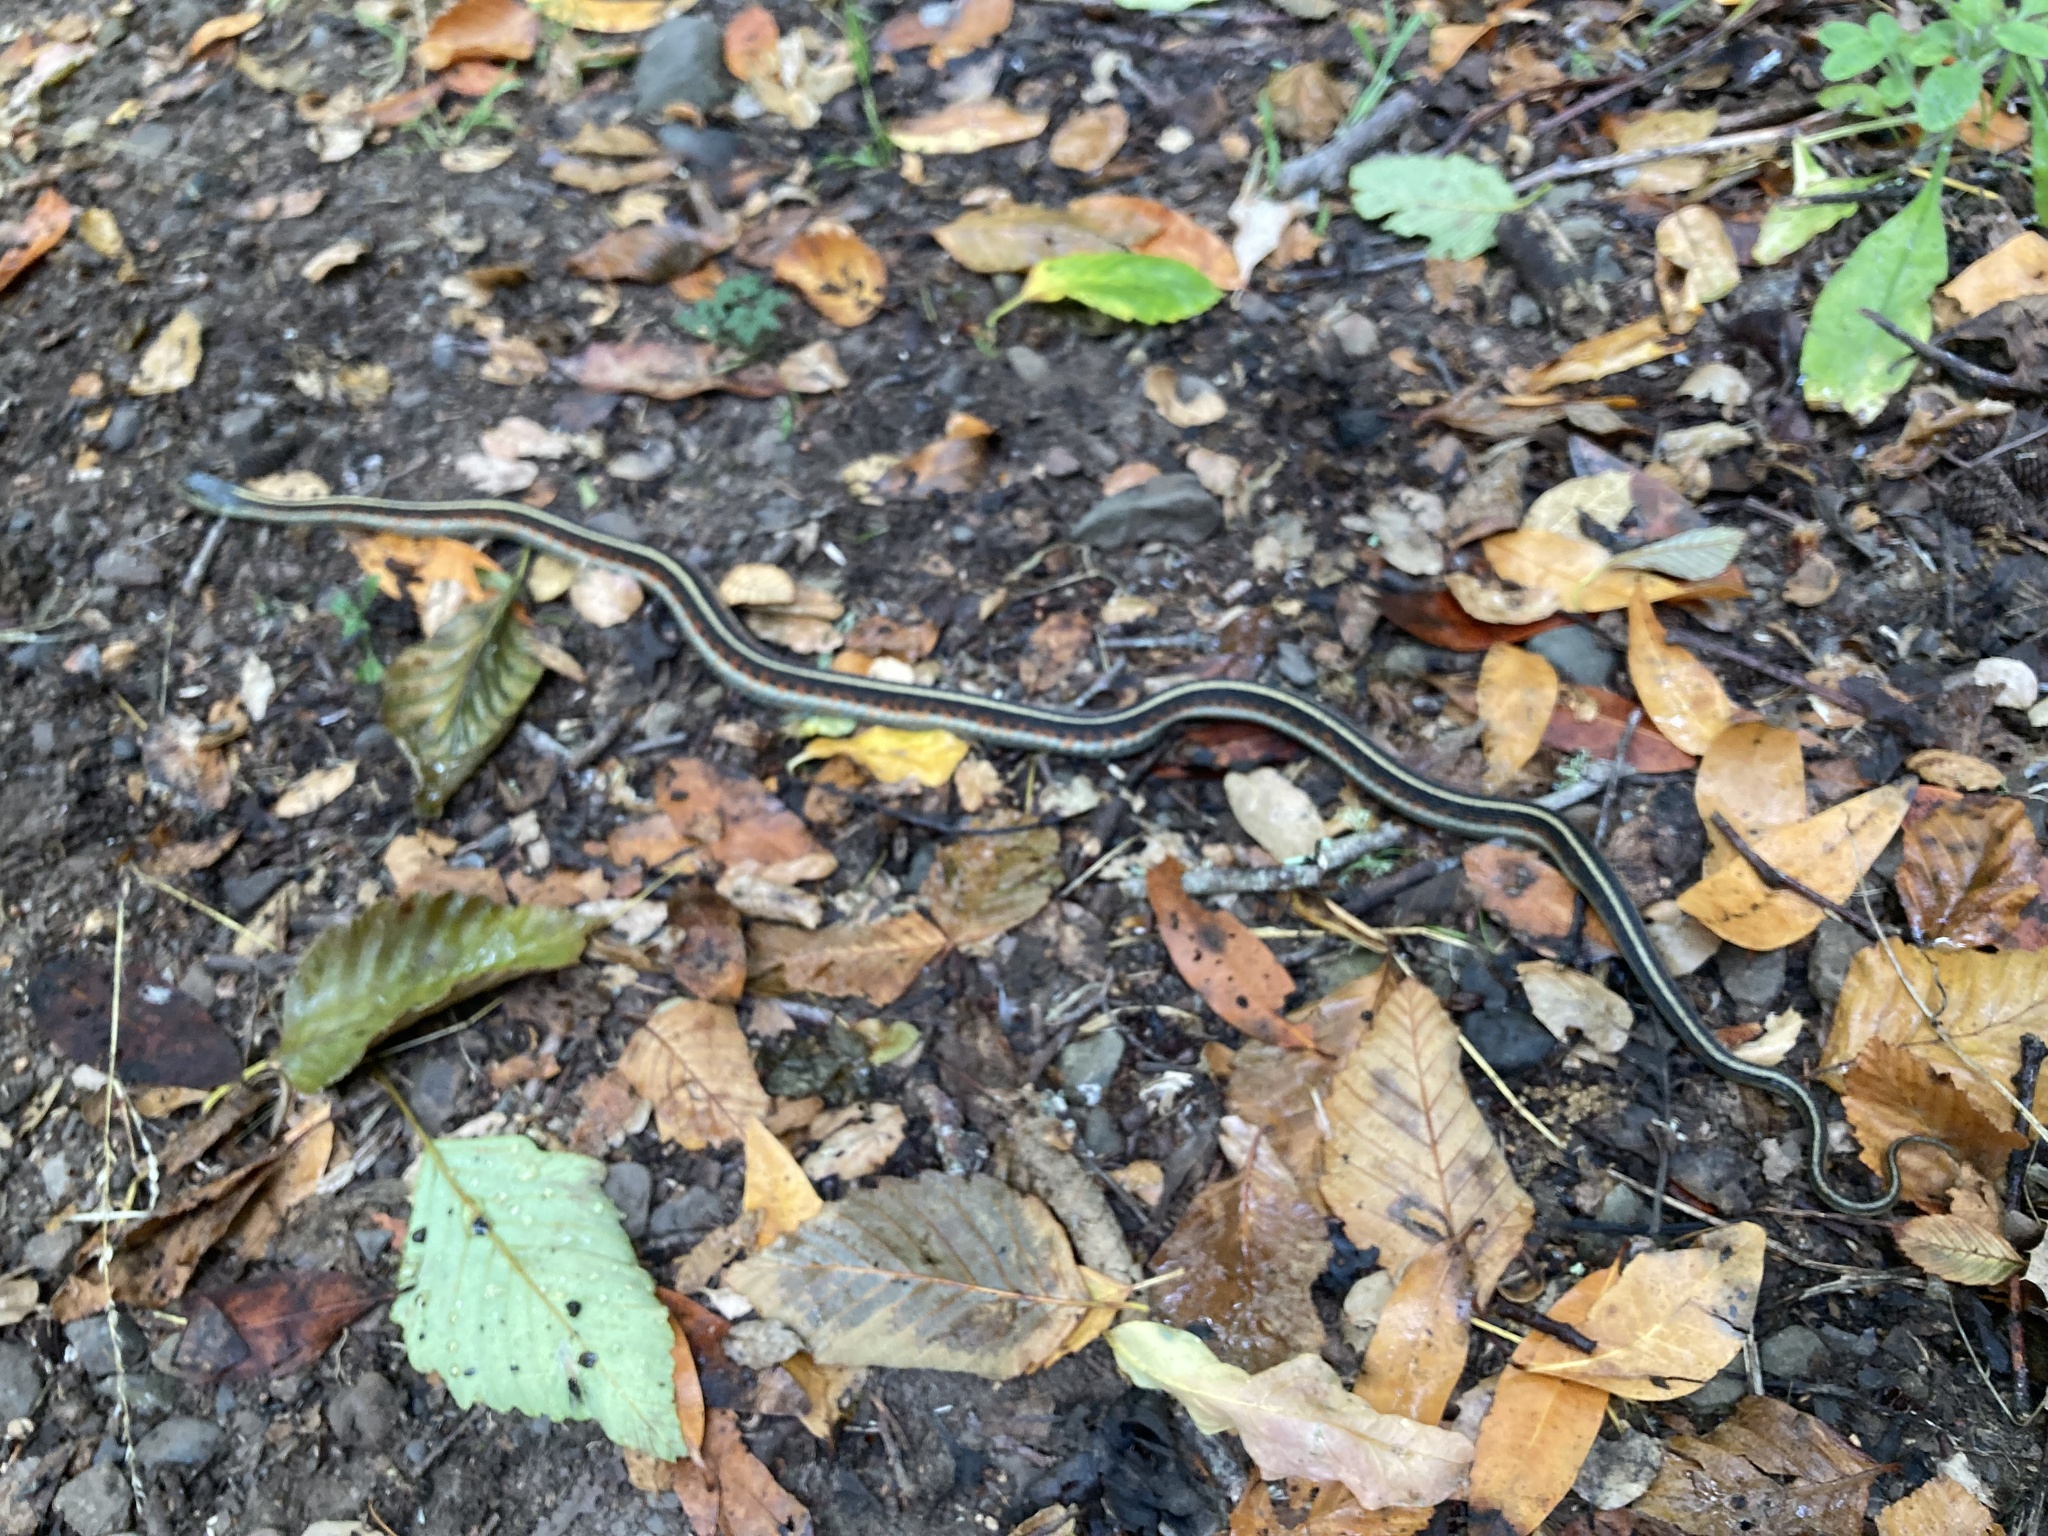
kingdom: Animalia
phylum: Chordata
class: Squamata
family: Colubridae
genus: Thamnophis
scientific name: Thamnophis elegans
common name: Western terrestrial garter snake
